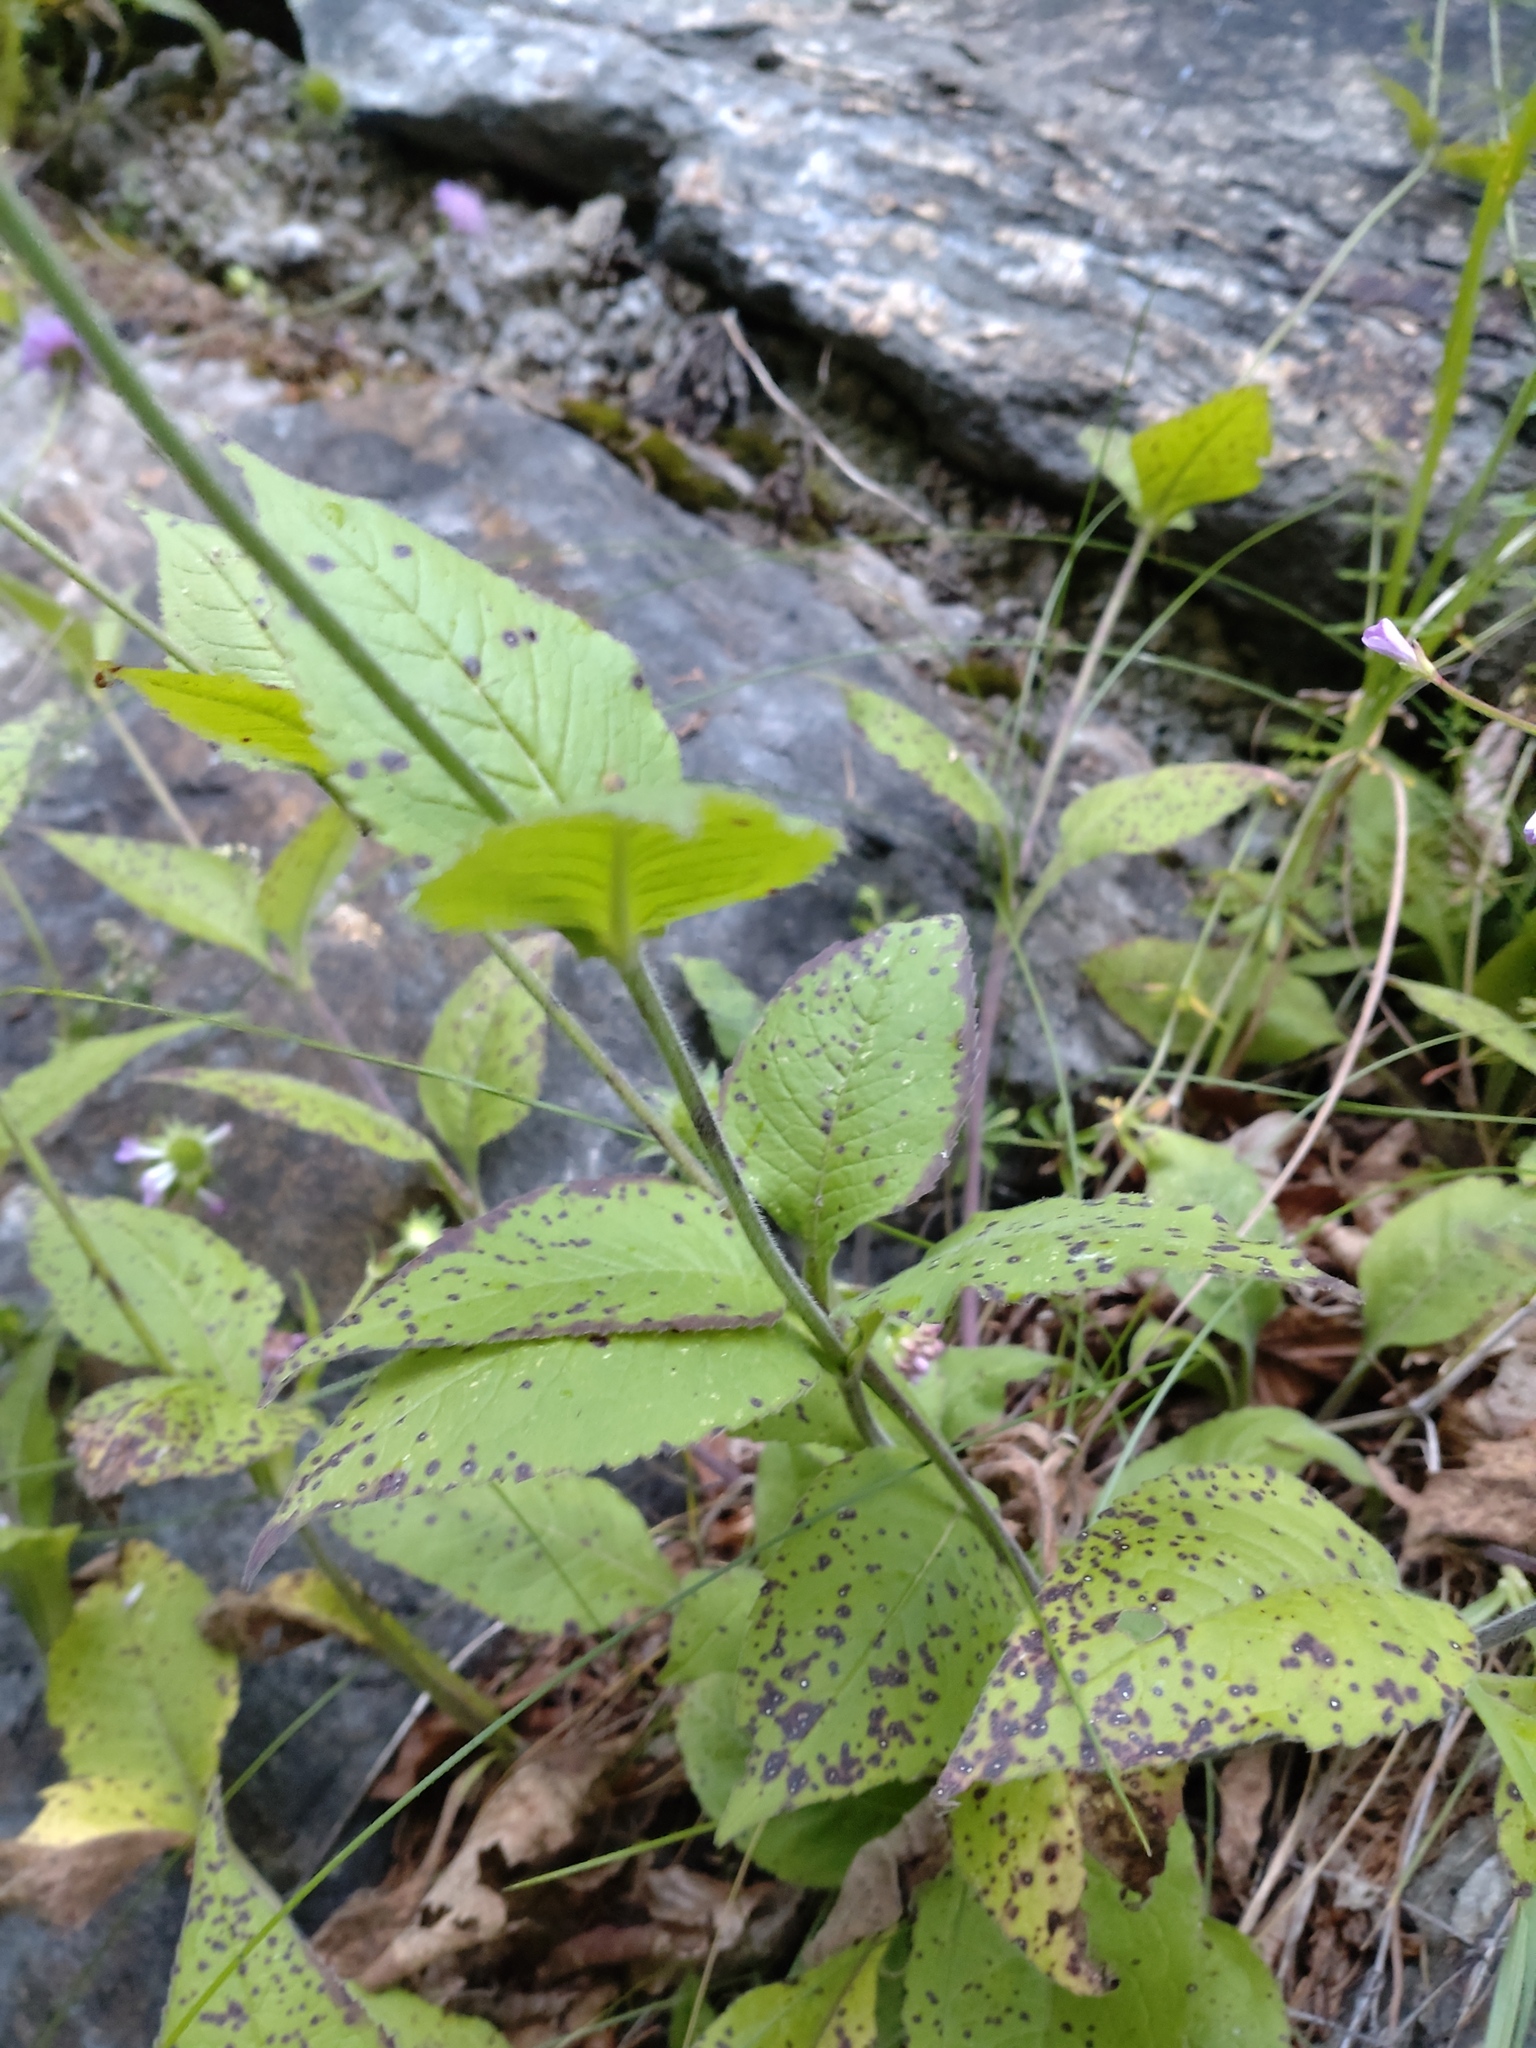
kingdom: Plantae
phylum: Tracheophyta
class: Magnoliopsida
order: Dipsacales
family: Caprifoliaceae
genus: Knautia
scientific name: Knautia drymeia
